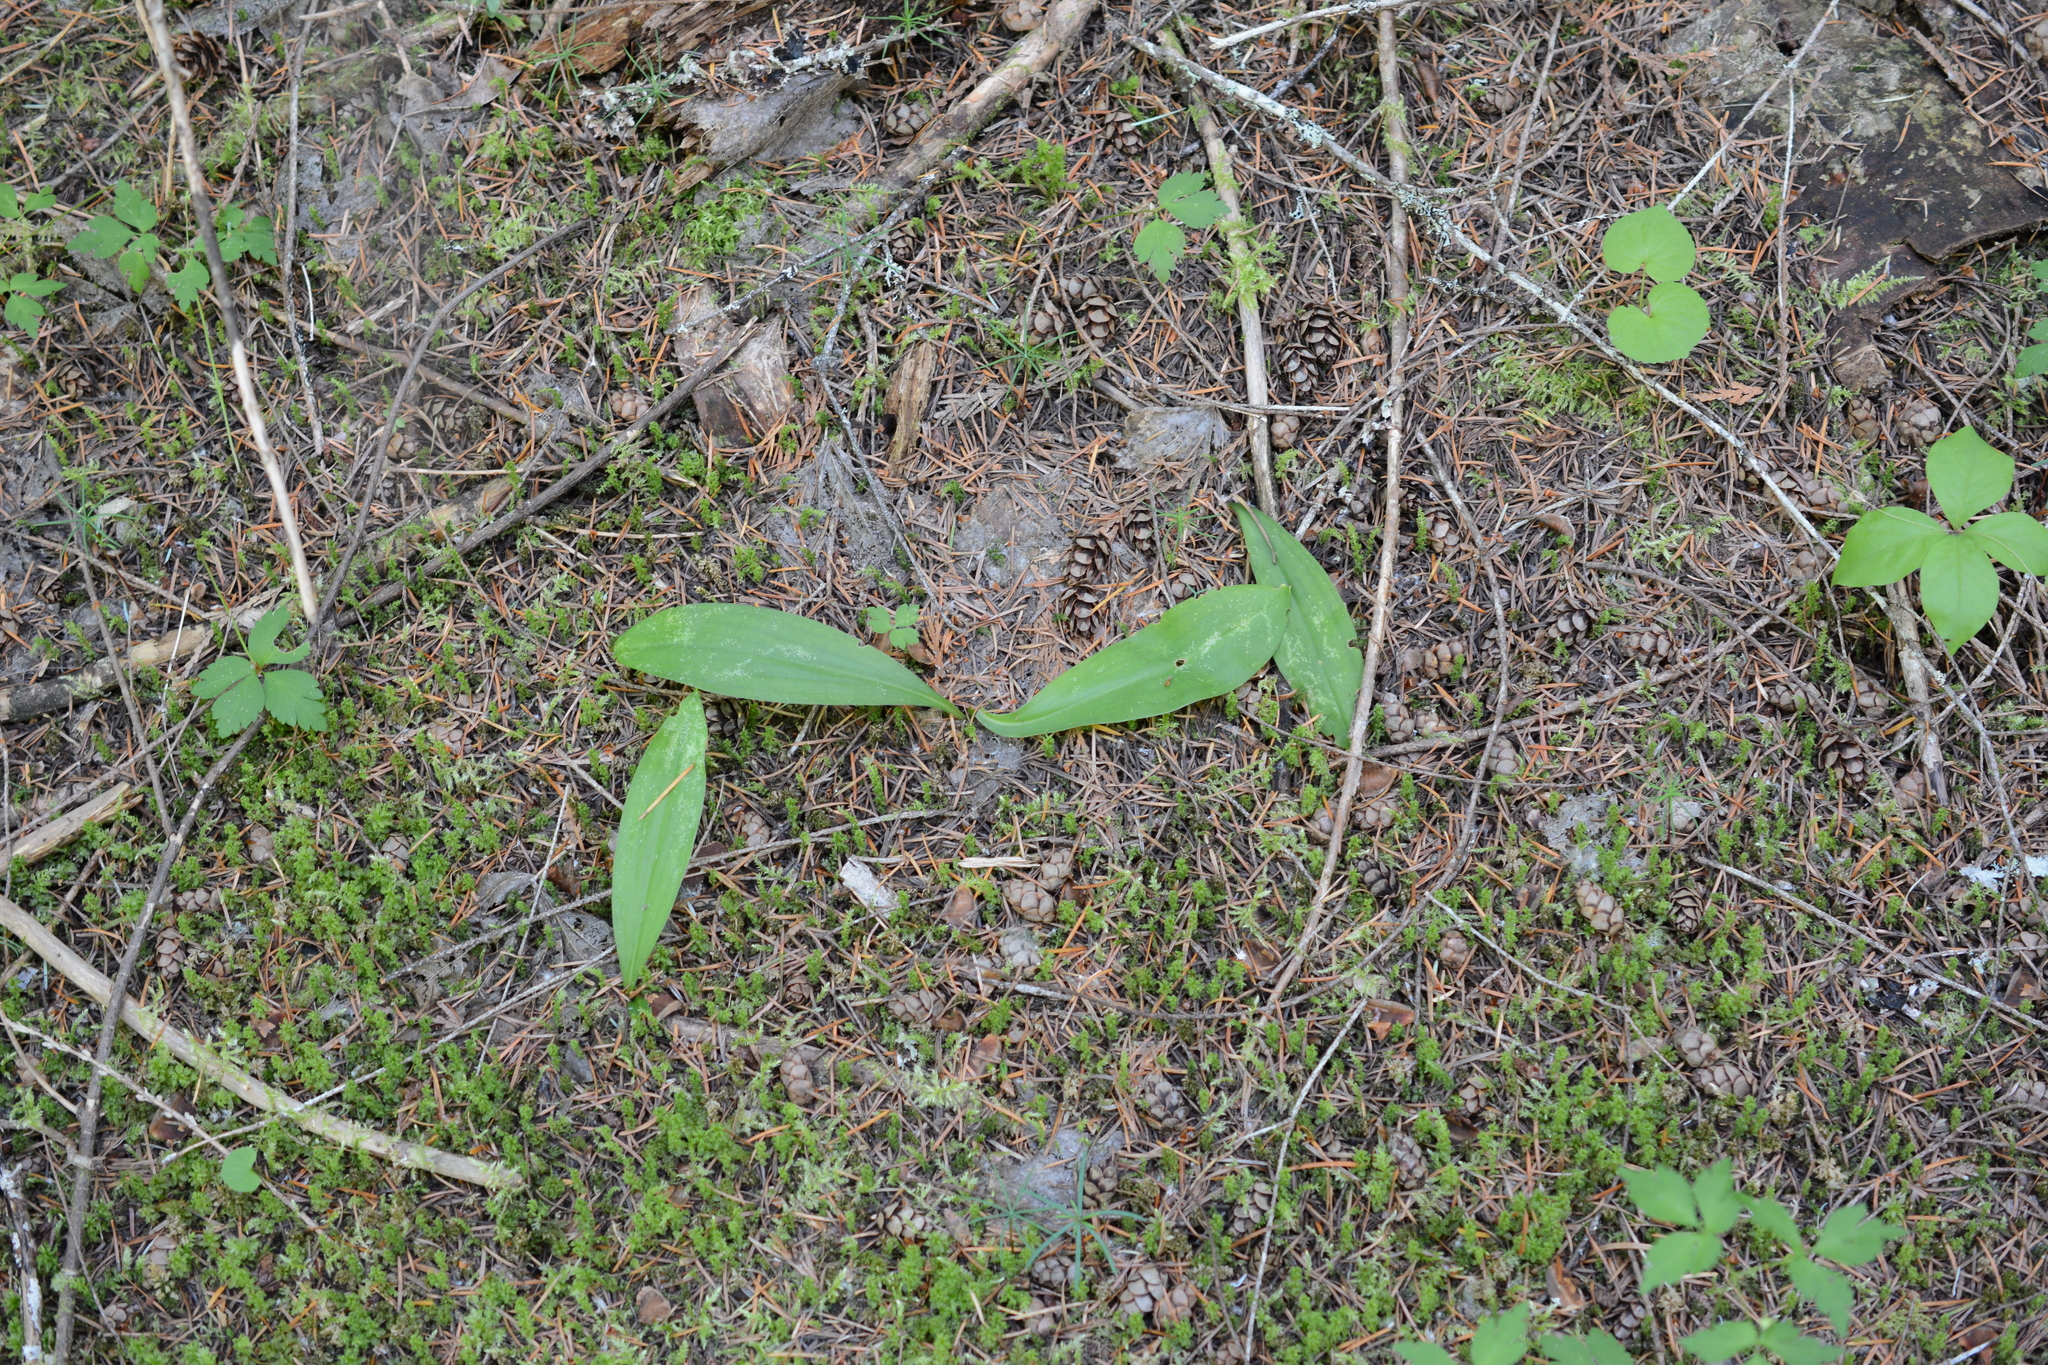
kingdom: Plantae
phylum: Tracheophyta
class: Liliopsida
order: Liliales
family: Liliaceae
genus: Clintonia
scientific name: Clintonia uniflora
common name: Queen's cup
